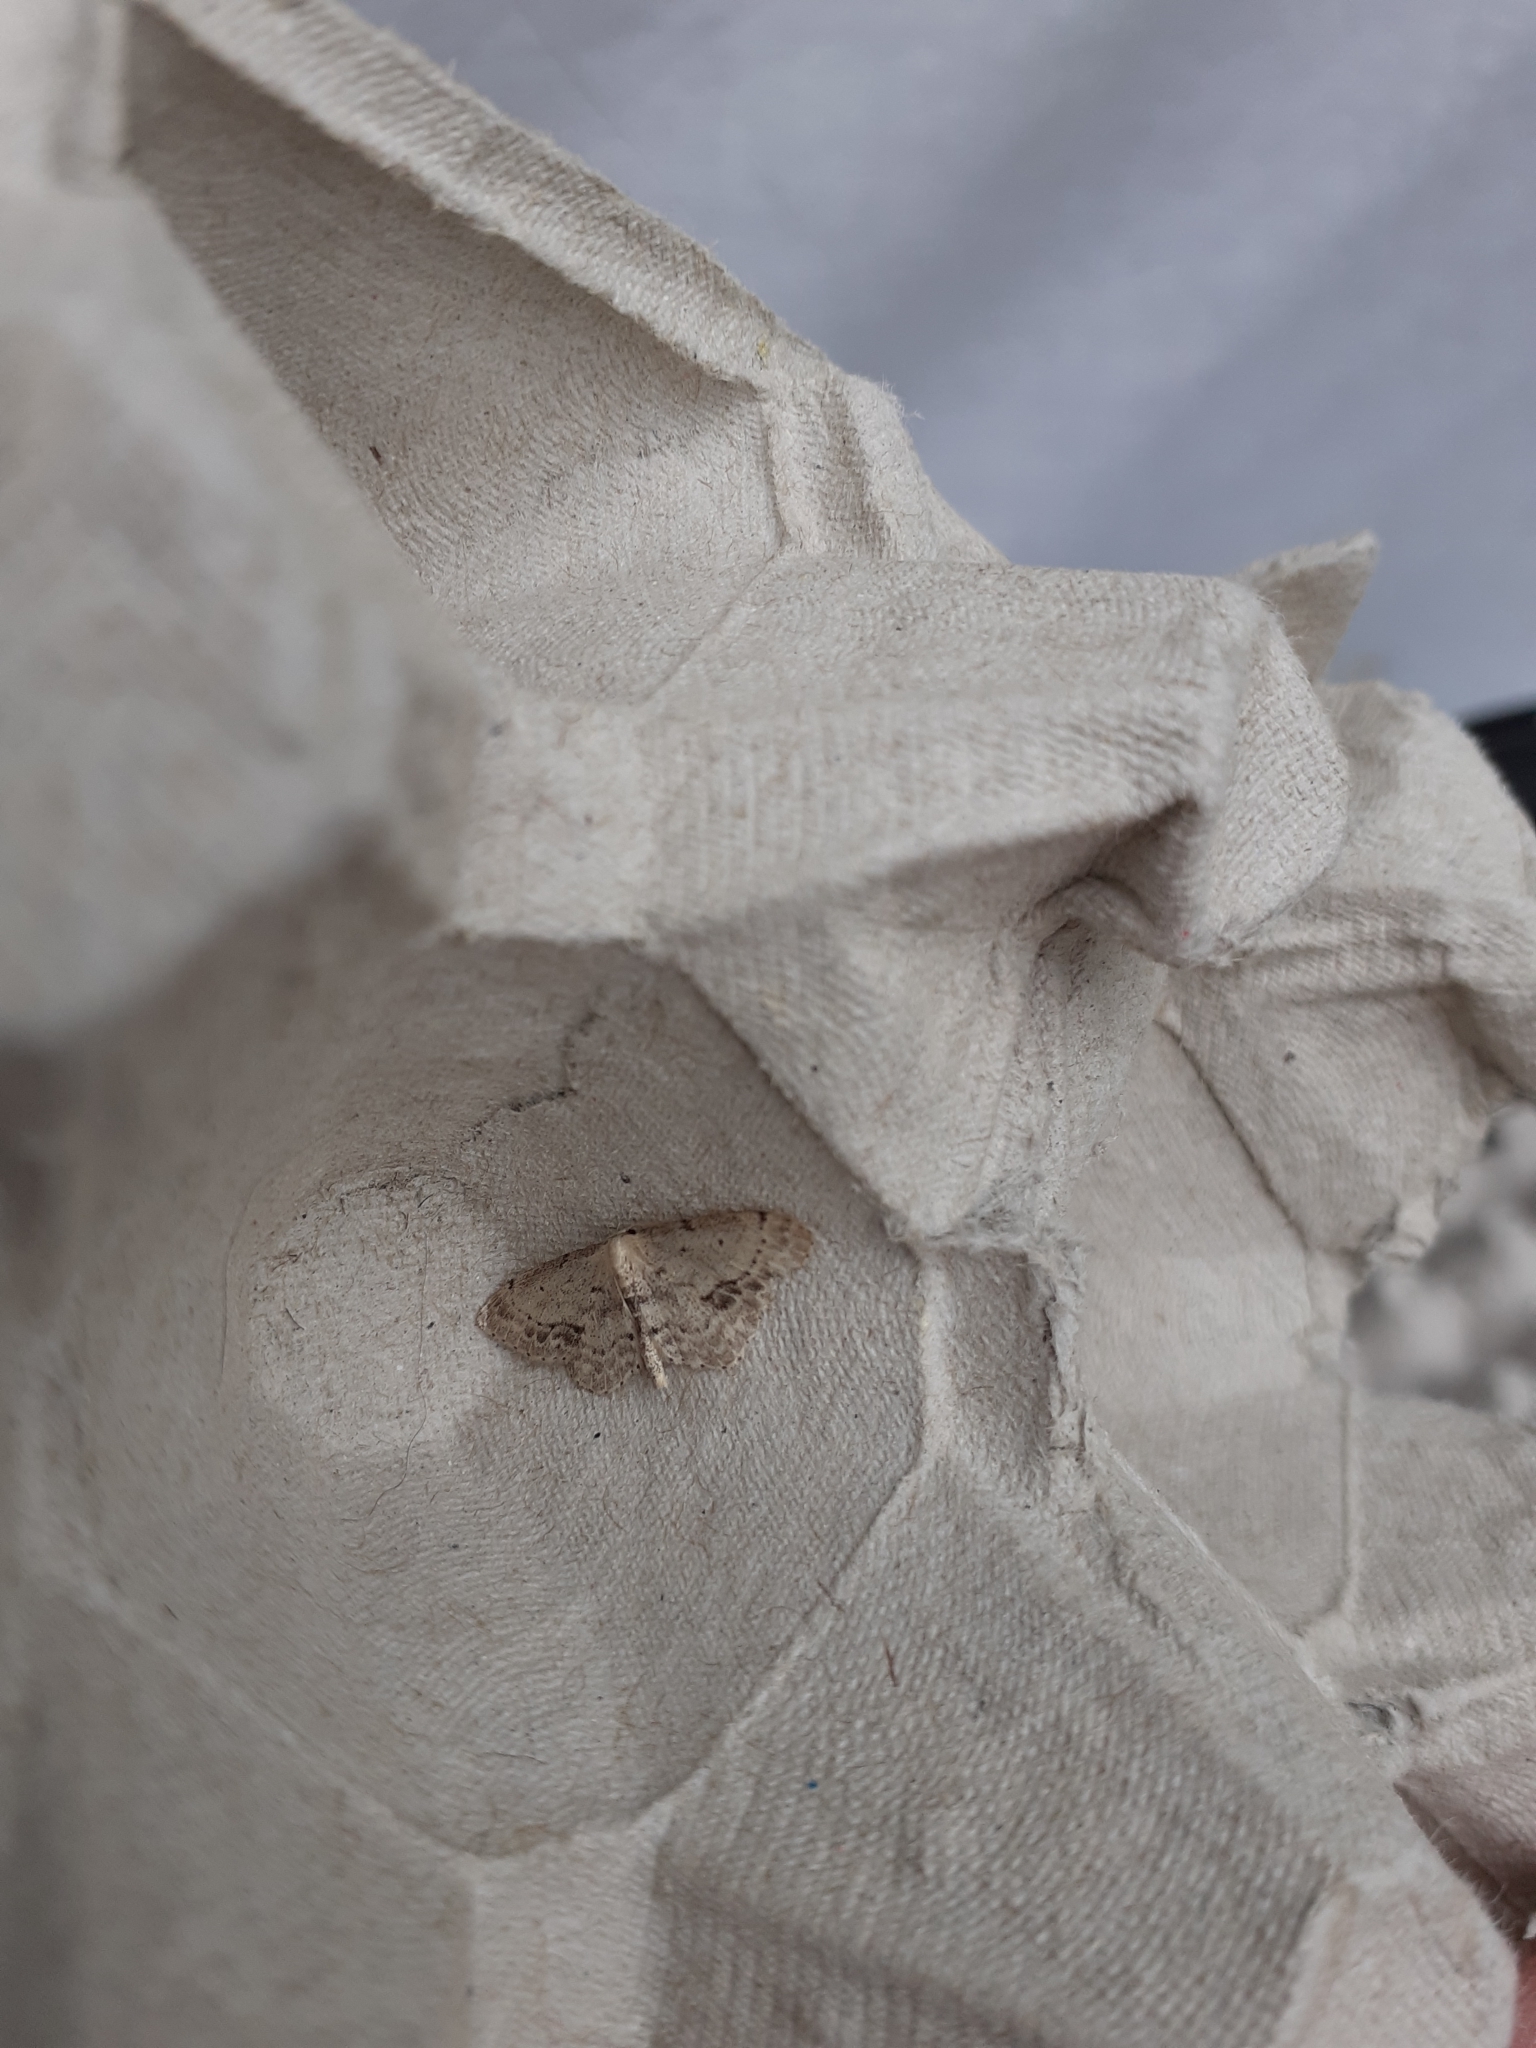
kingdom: Animalia
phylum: Arthropoda
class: Insecta
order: Lepidoptera
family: Geometridae
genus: Idaea
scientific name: Idaea dimidiata
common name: Single-dotted wave
